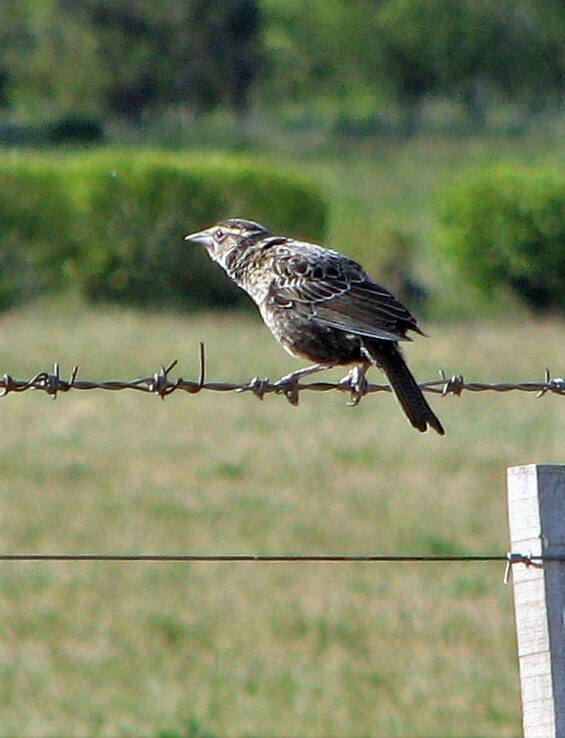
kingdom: Animalia
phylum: Chordata
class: Aves
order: Passeriformes
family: Icteridae
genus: Sturnella
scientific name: Sturnella loyca
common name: Long-tailed meadowlark
